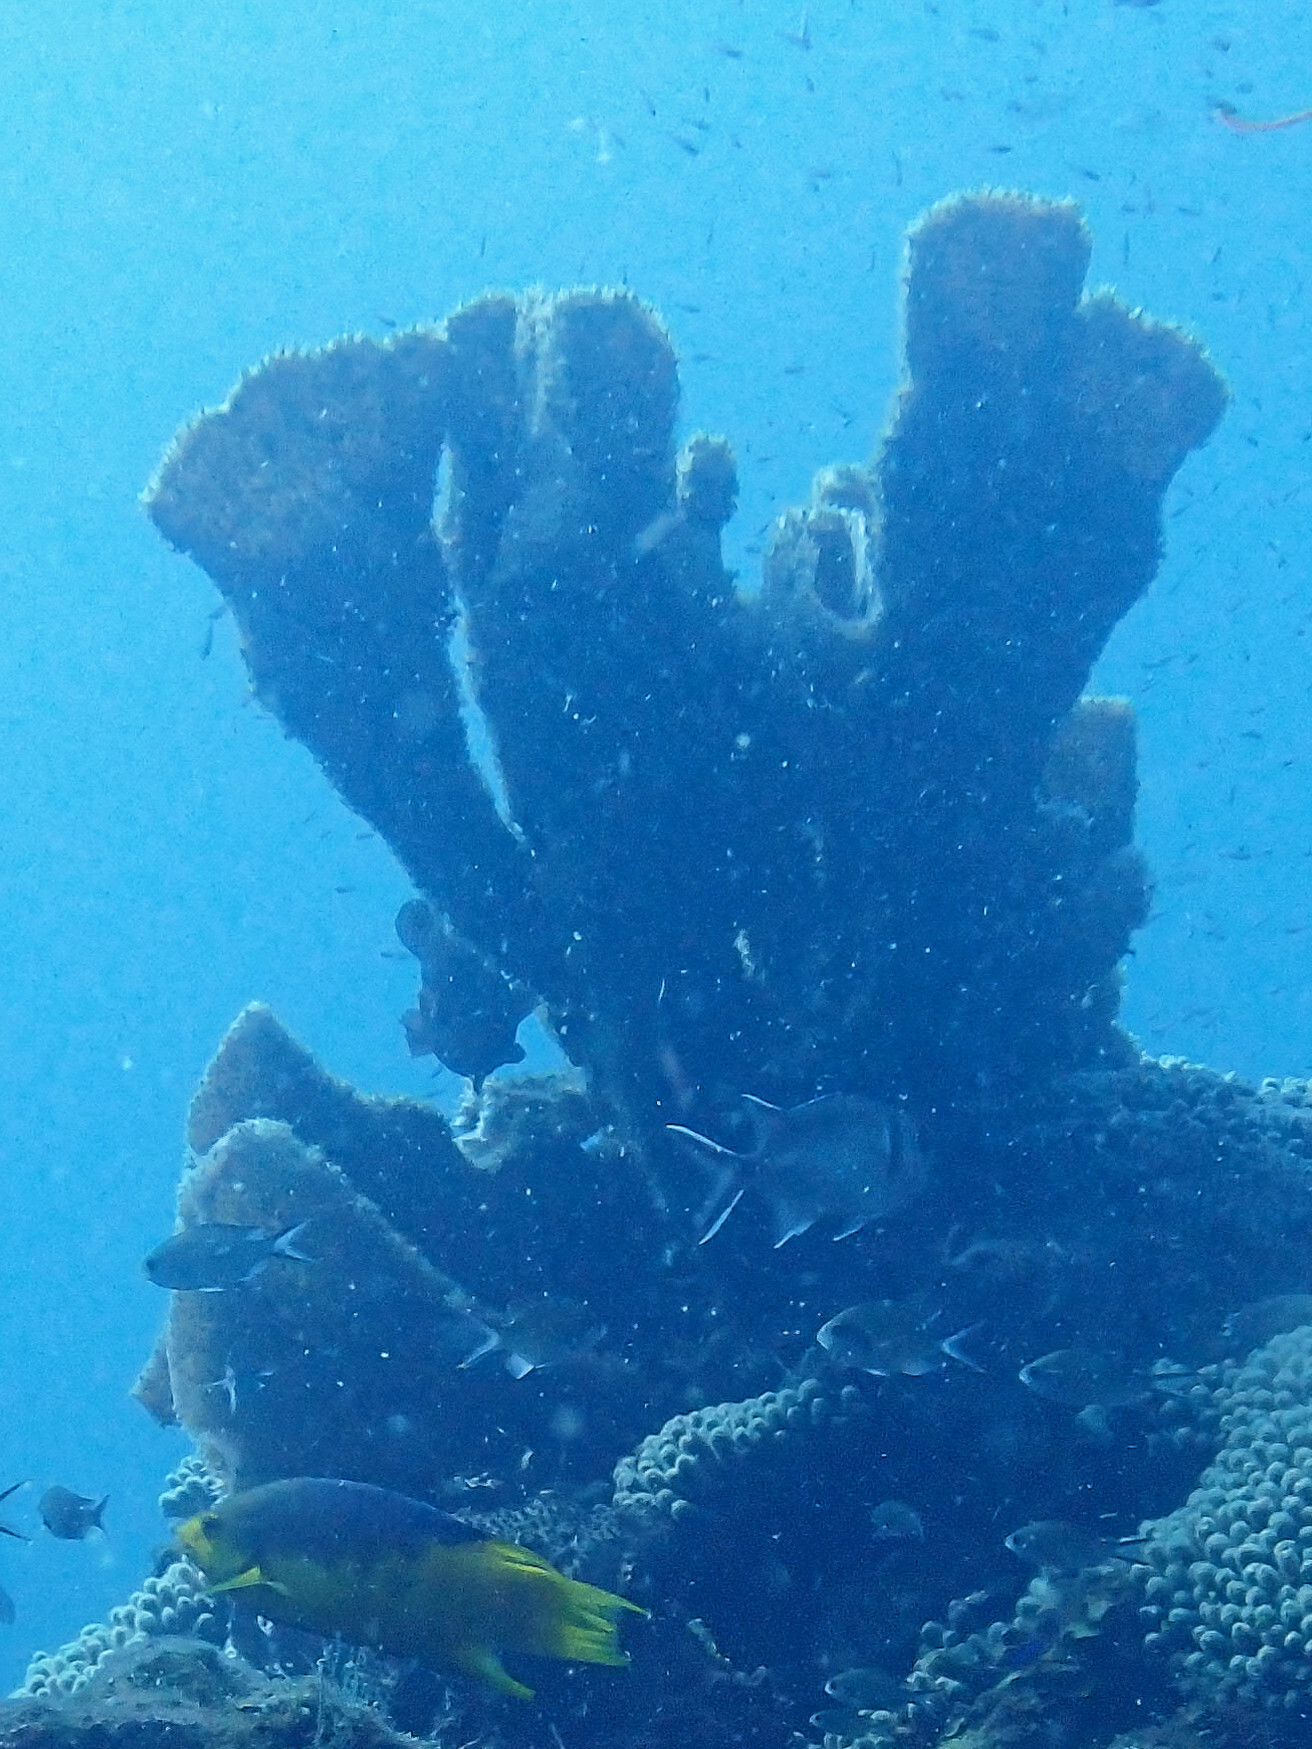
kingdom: Animalia
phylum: Porifera
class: Demospongiae
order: Haplosclerida
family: Callyspongiidae
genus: Callyspongia
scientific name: Callyspongia aculeata
